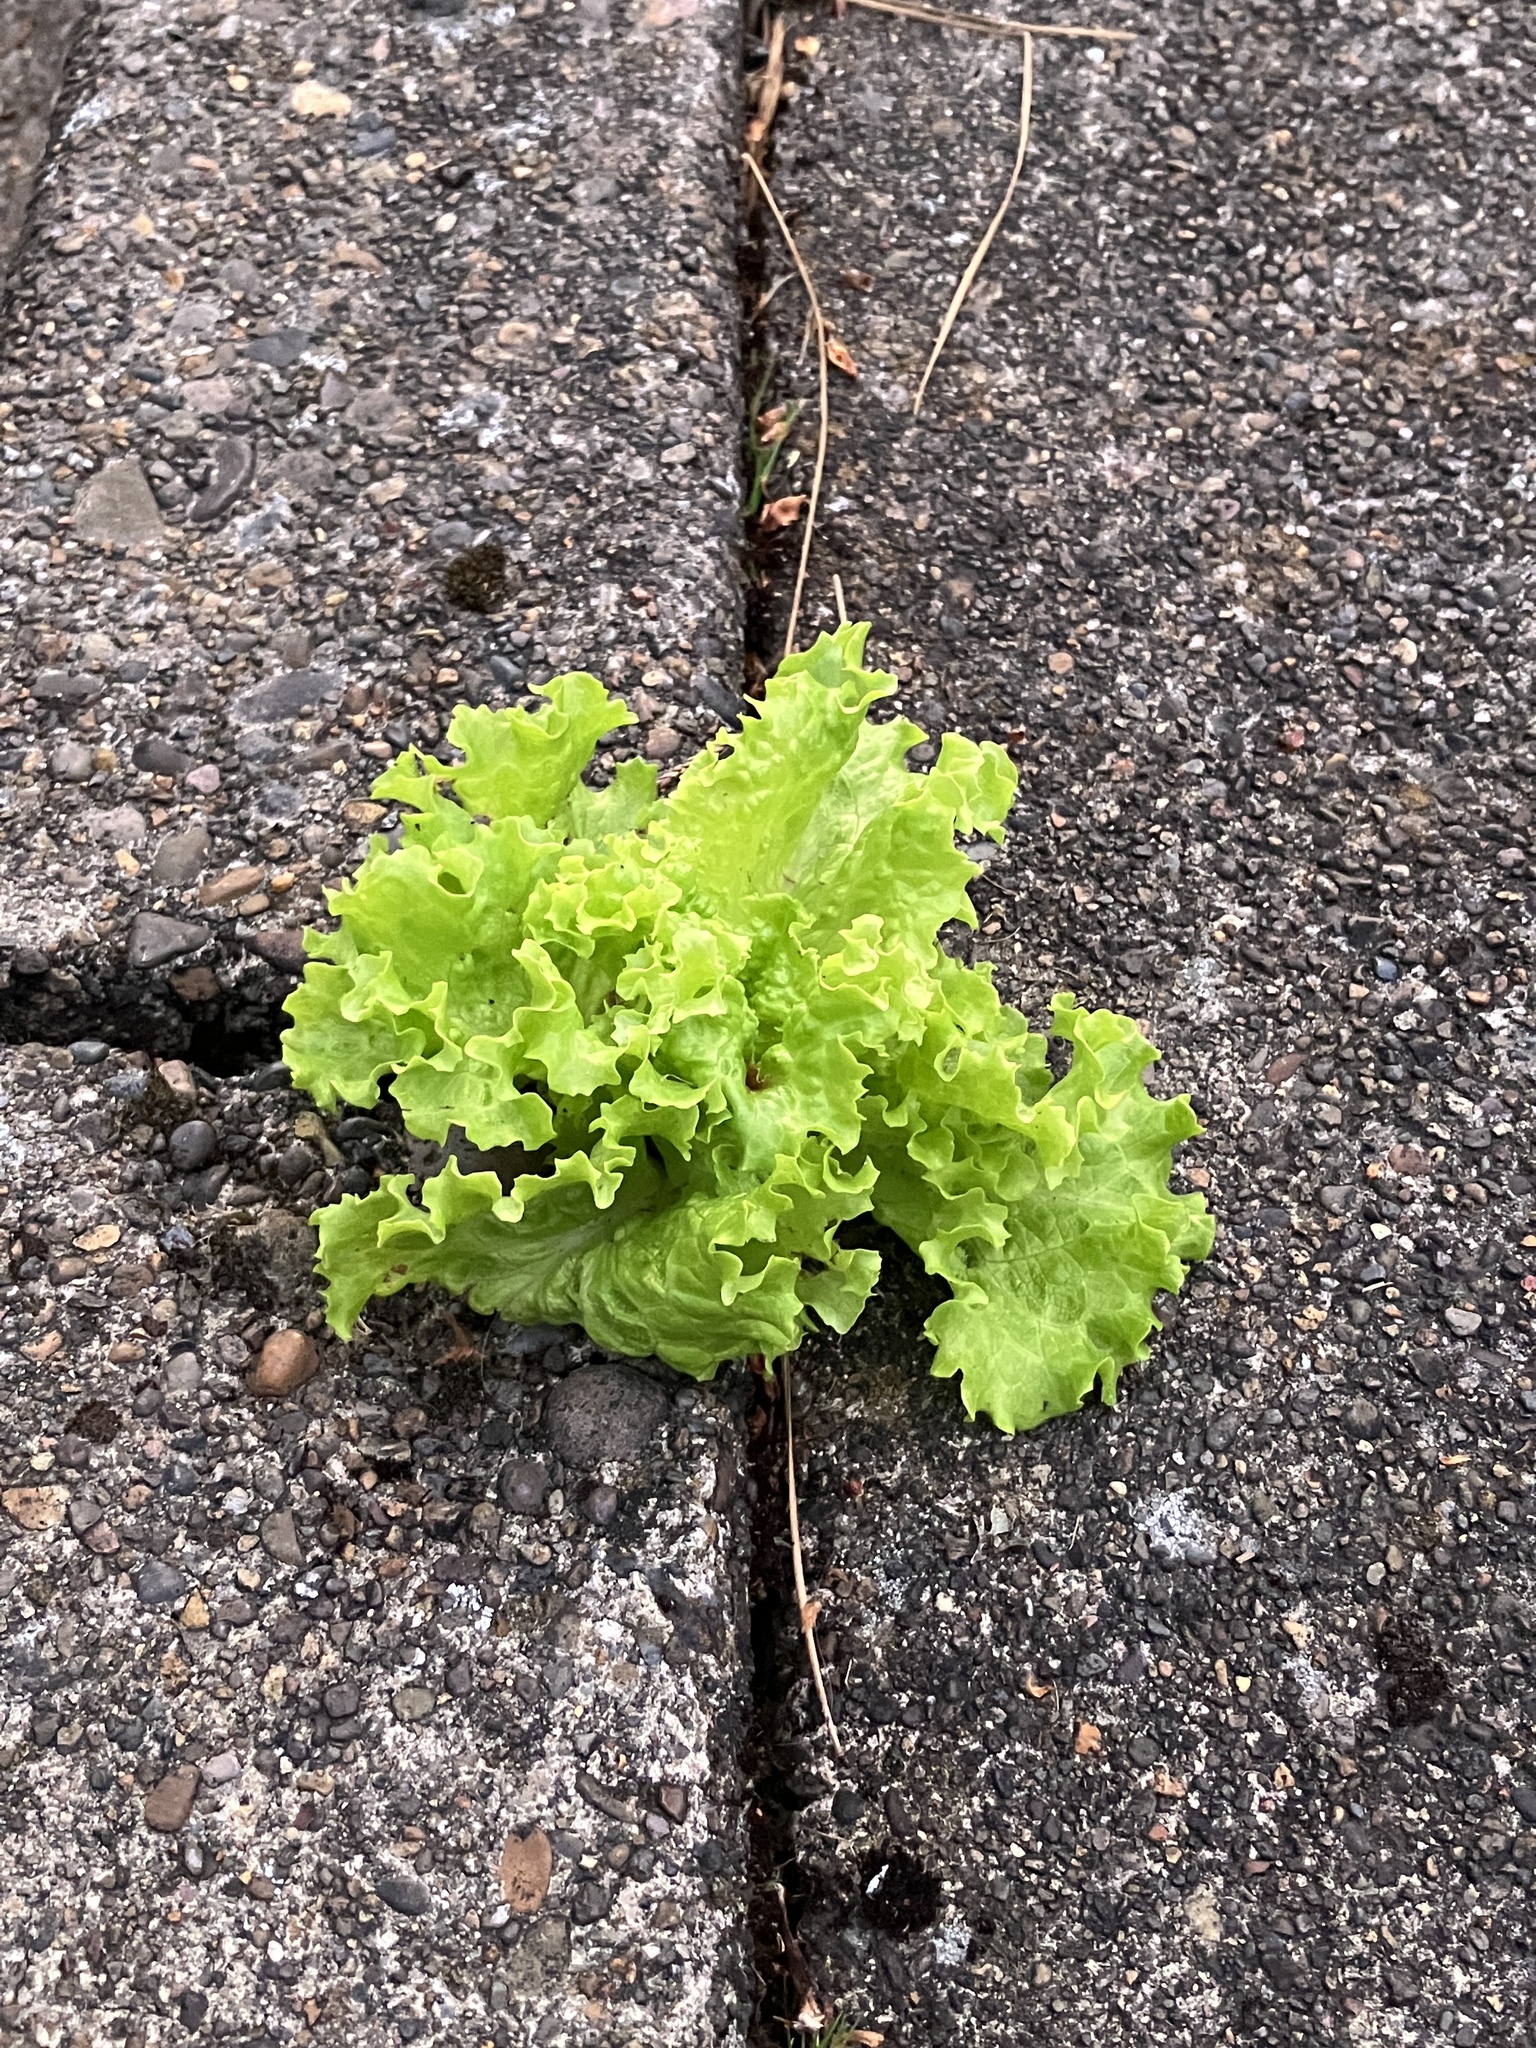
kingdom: Plantae
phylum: Tracheophyta
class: Magnoliopsida
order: Asterales
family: Asteraceae
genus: Lactuca
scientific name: Lactuca sativa
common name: Garden lettuce
